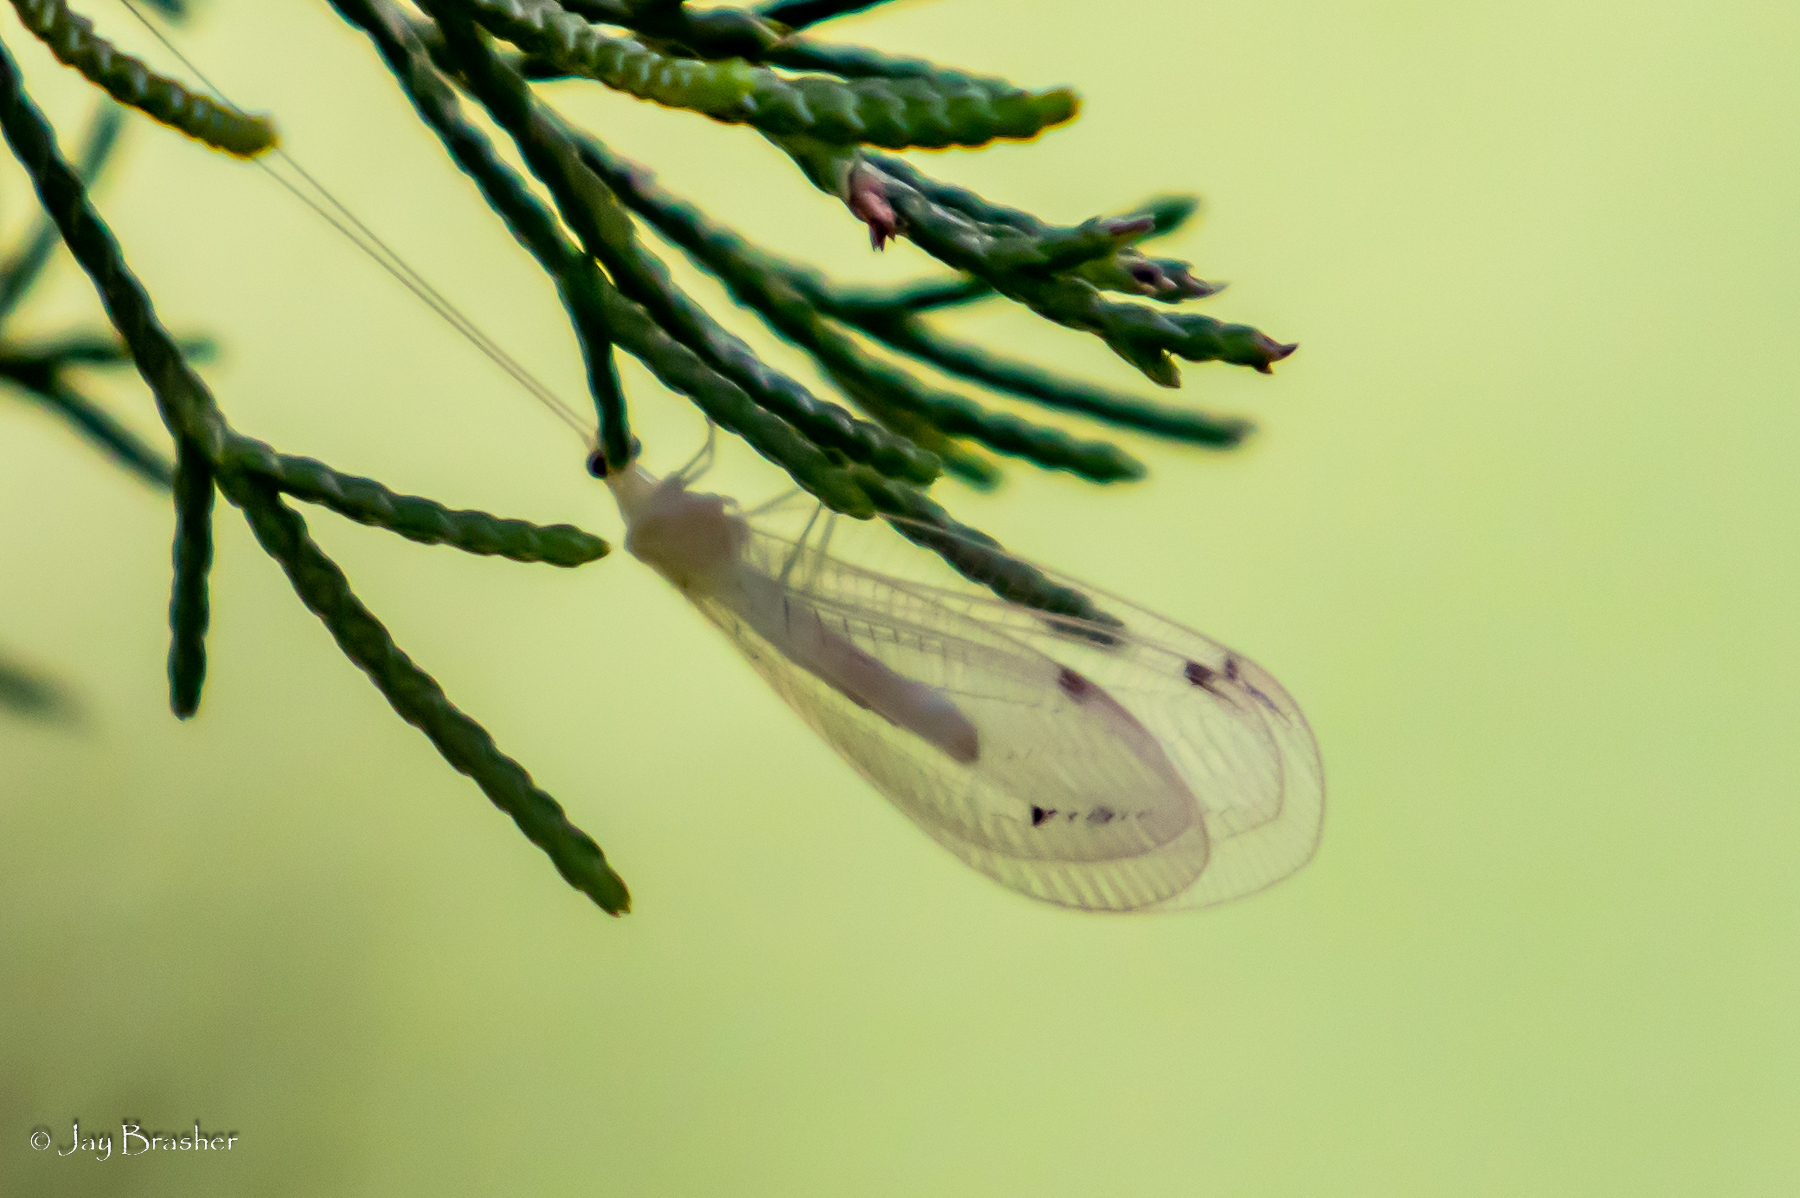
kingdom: Animalia
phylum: Arthropoda
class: Insecta
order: Neuroptera
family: Chrysopidae
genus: Leucochrysa
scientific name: Leucochrysa insularis
